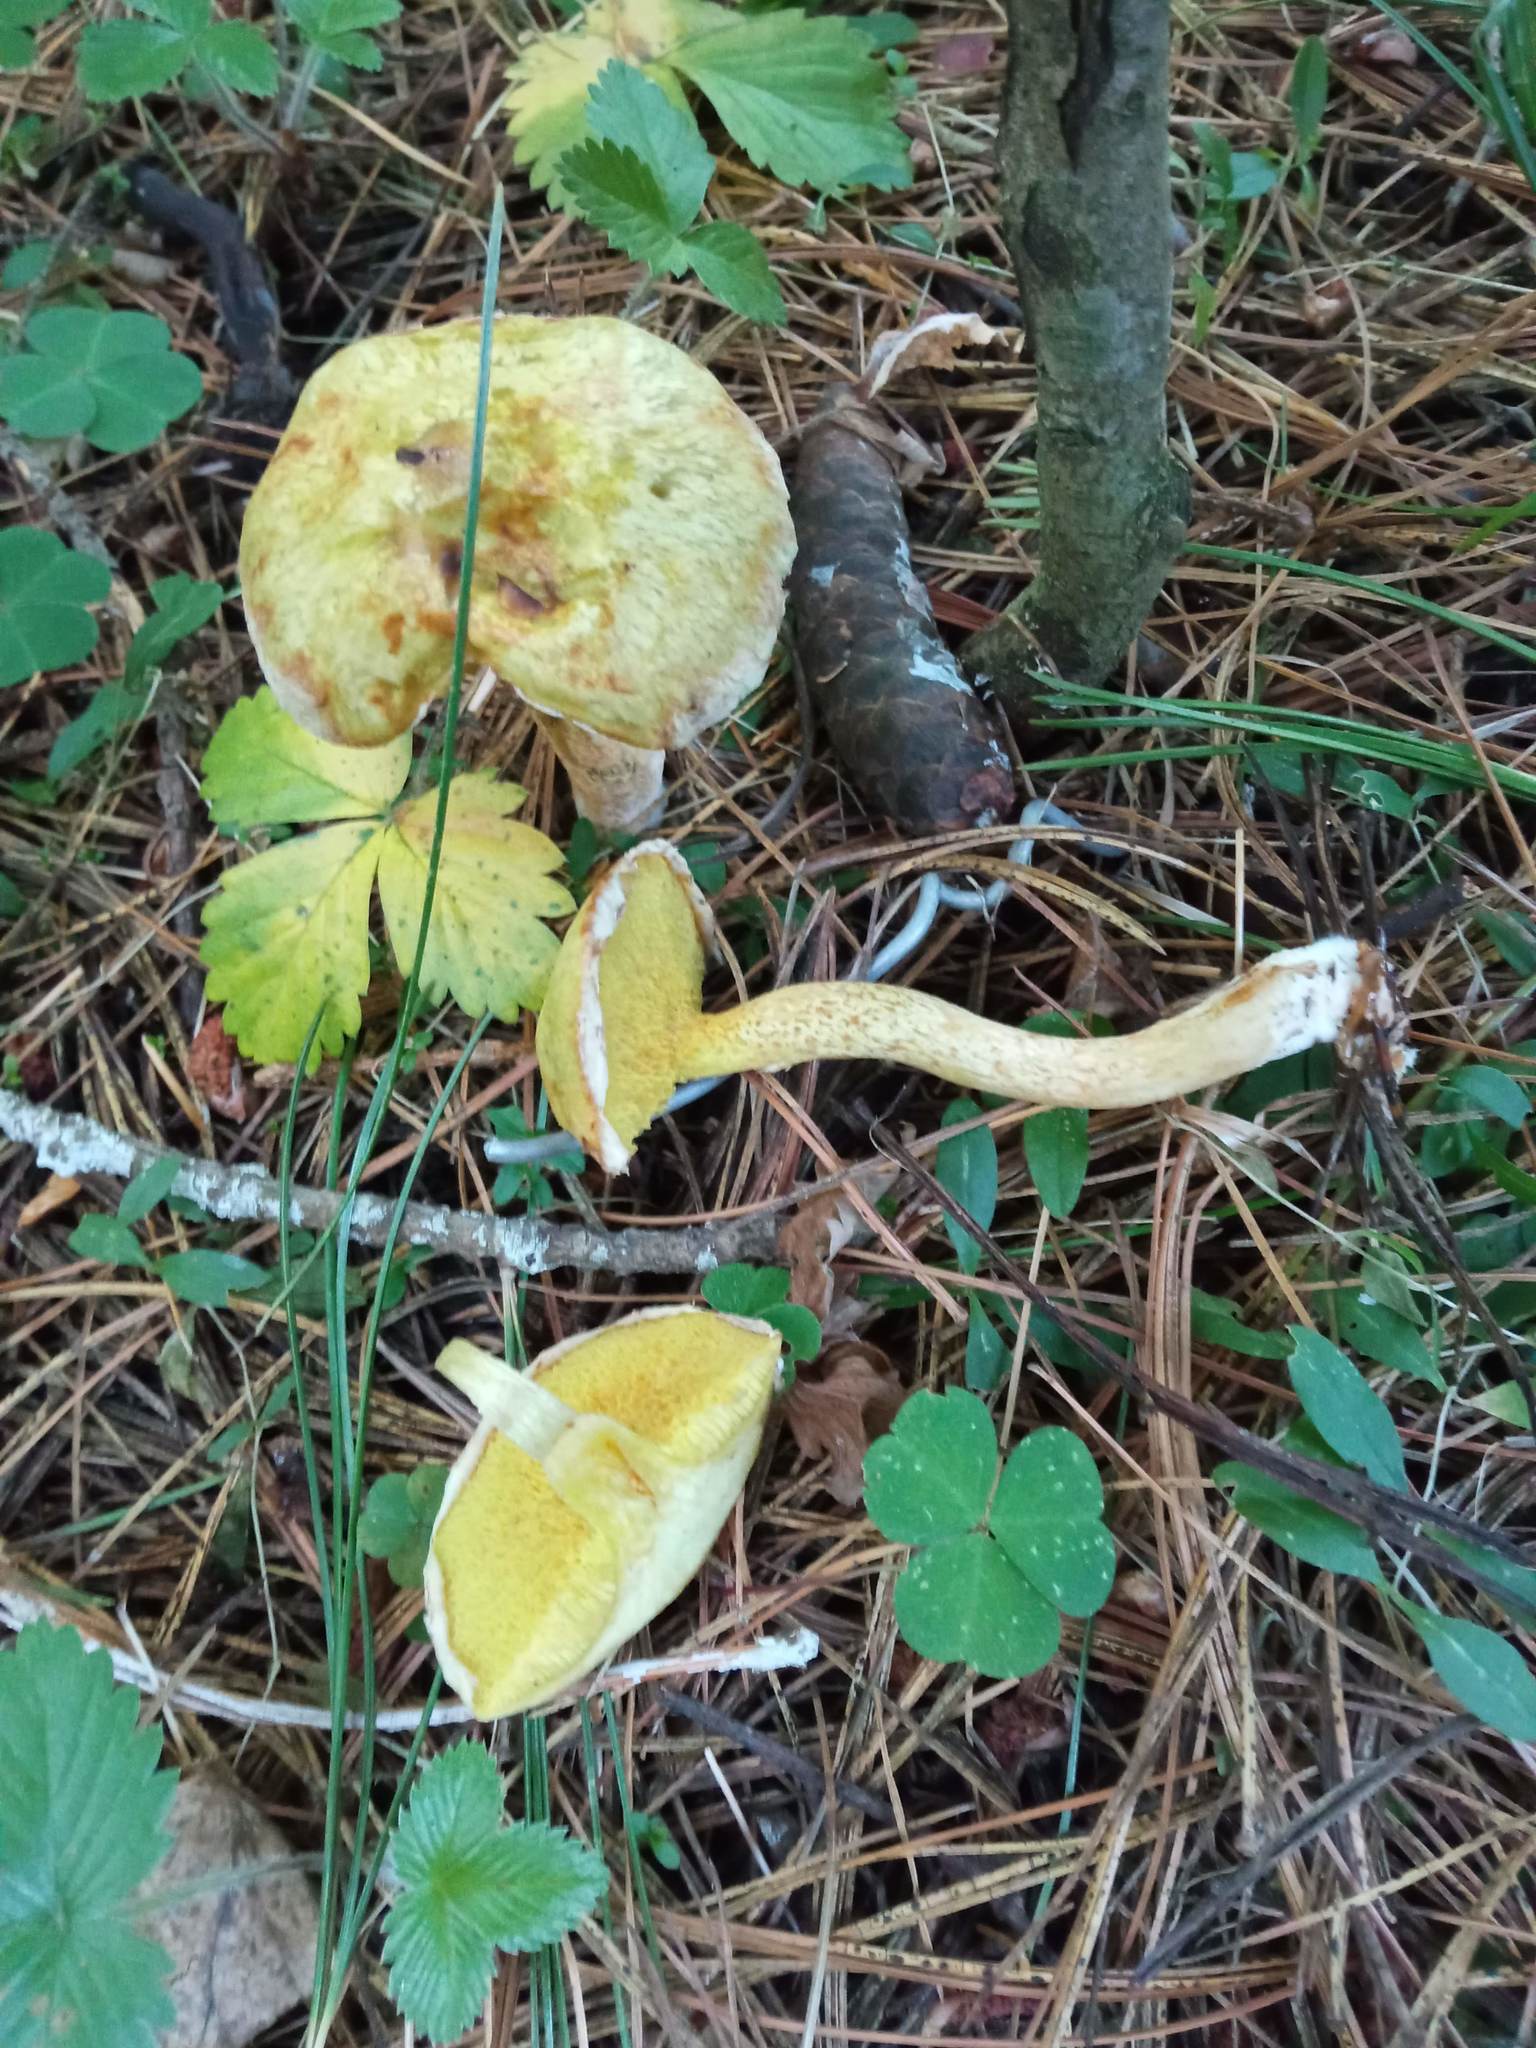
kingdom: Fungi
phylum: Basidiomycota
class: Agaricomycetes
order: Boletales
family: Suillaceae
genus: Suillus
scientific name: Suillus americanus
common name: Chicken fat mushroom
